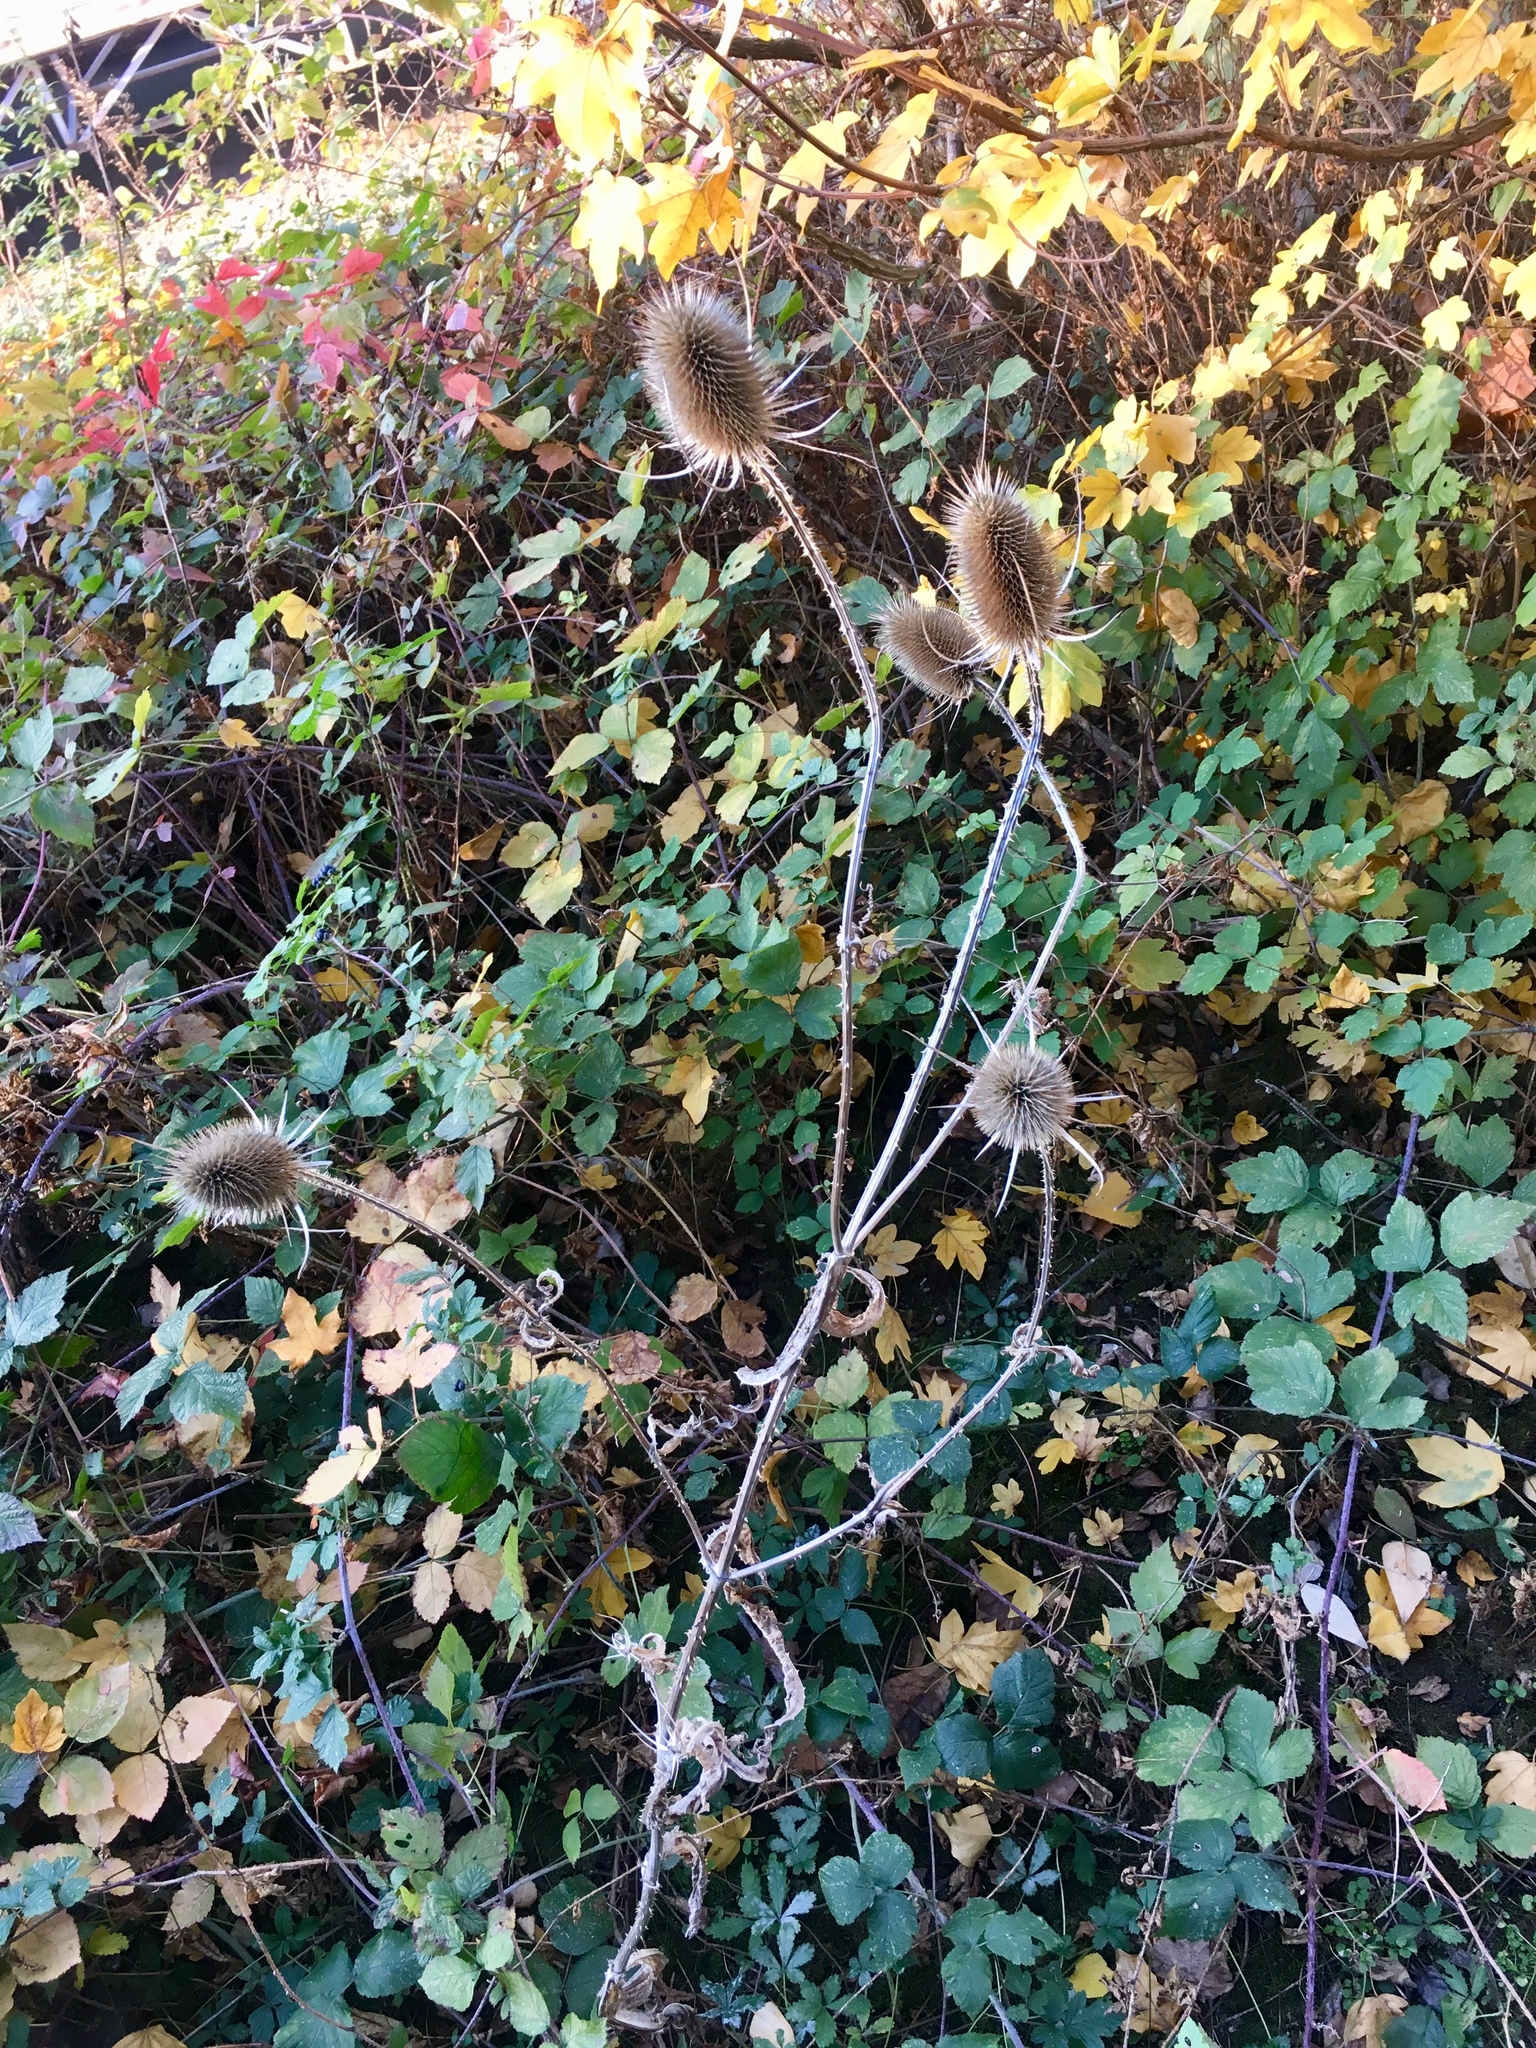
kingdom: Plantae
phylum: Tracheophyta
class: Magnoliopsida
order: Dipsacales
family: Caprifoliaceae
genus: Dipsacus
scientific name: Dipsacus fullonum
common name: Teasel
